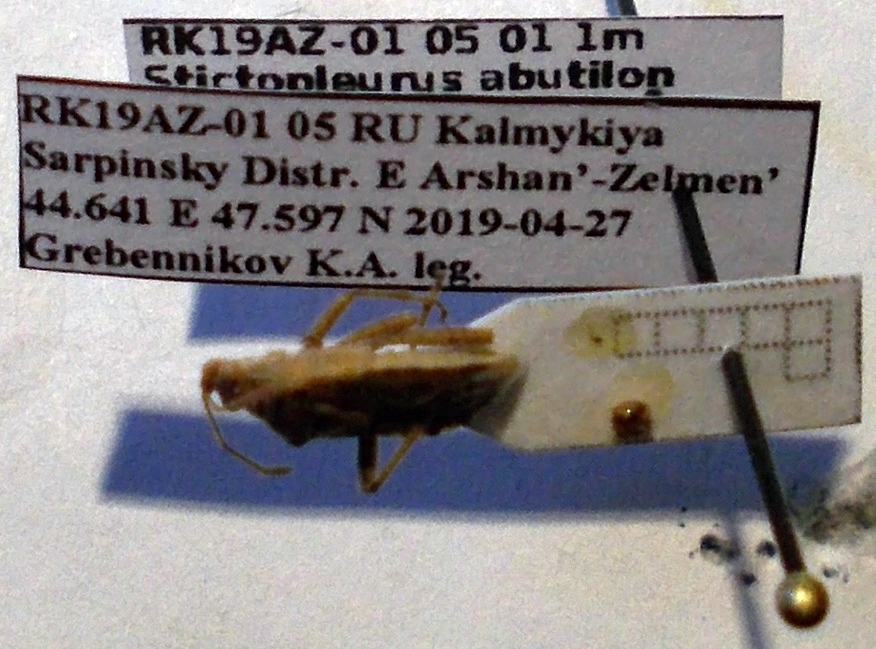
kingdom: Animalia
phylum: Arthropoda
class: Insecta
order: Hemiptera
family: Rhopalidae
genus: Stictopleurus
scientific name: Stictopleurus abutilon
